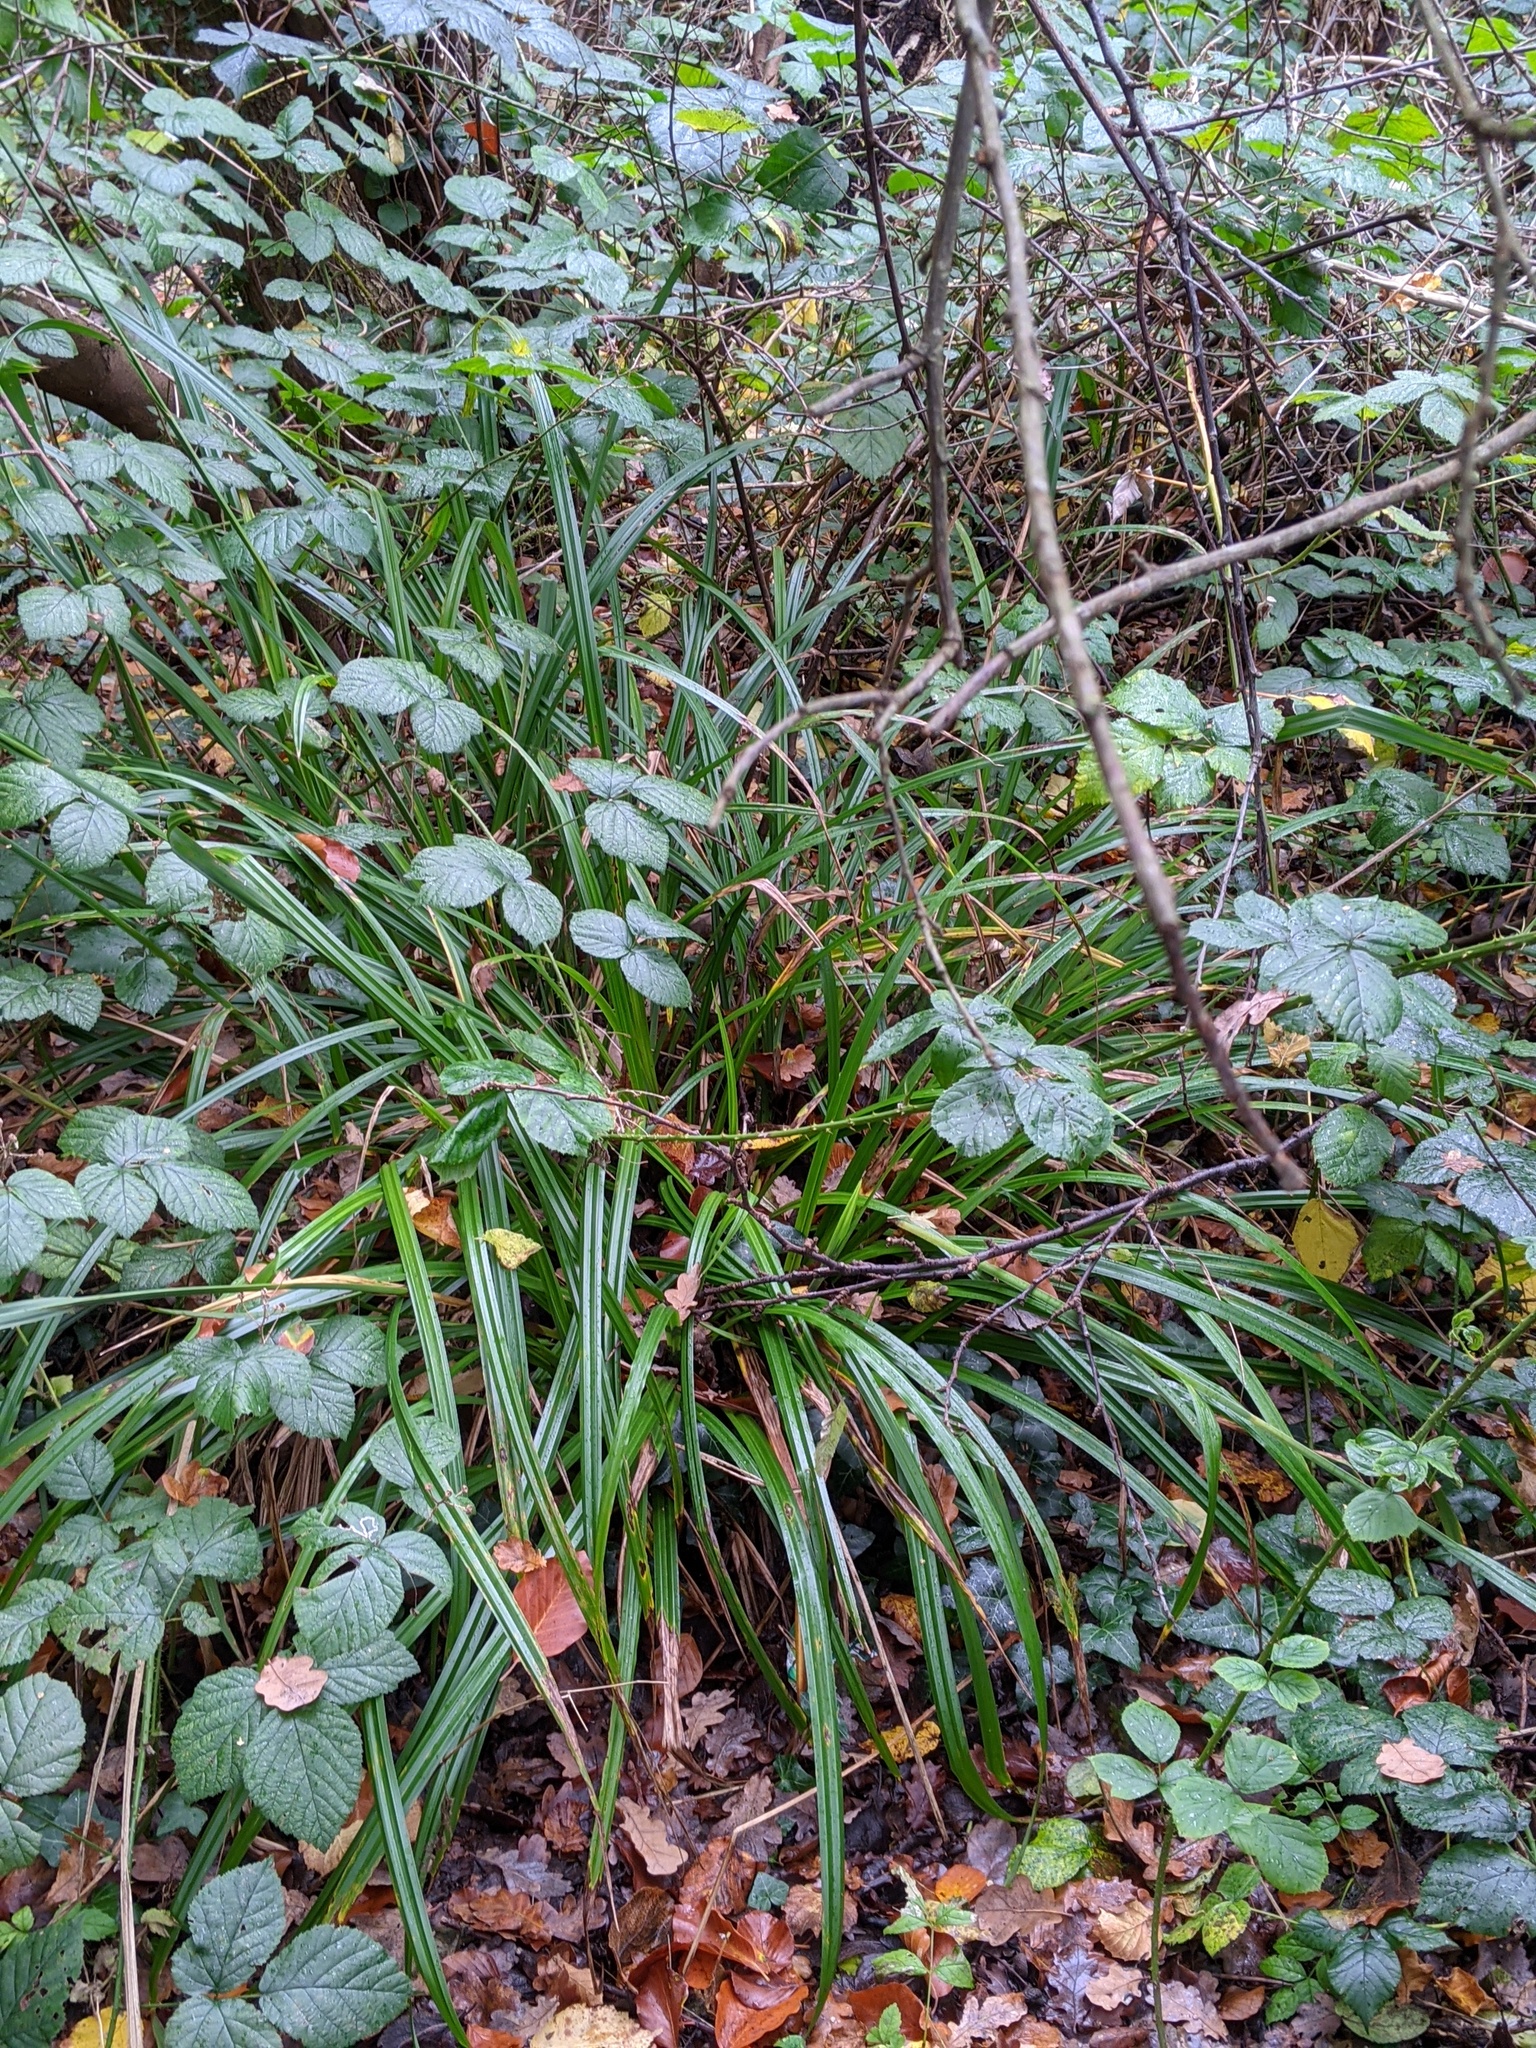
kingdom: Plantae
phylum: Tracheophyta
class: Liliopsida
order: Poales
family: Cyperaceae
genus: Carex
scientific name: Carex pendula
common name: Pendulous sedge
